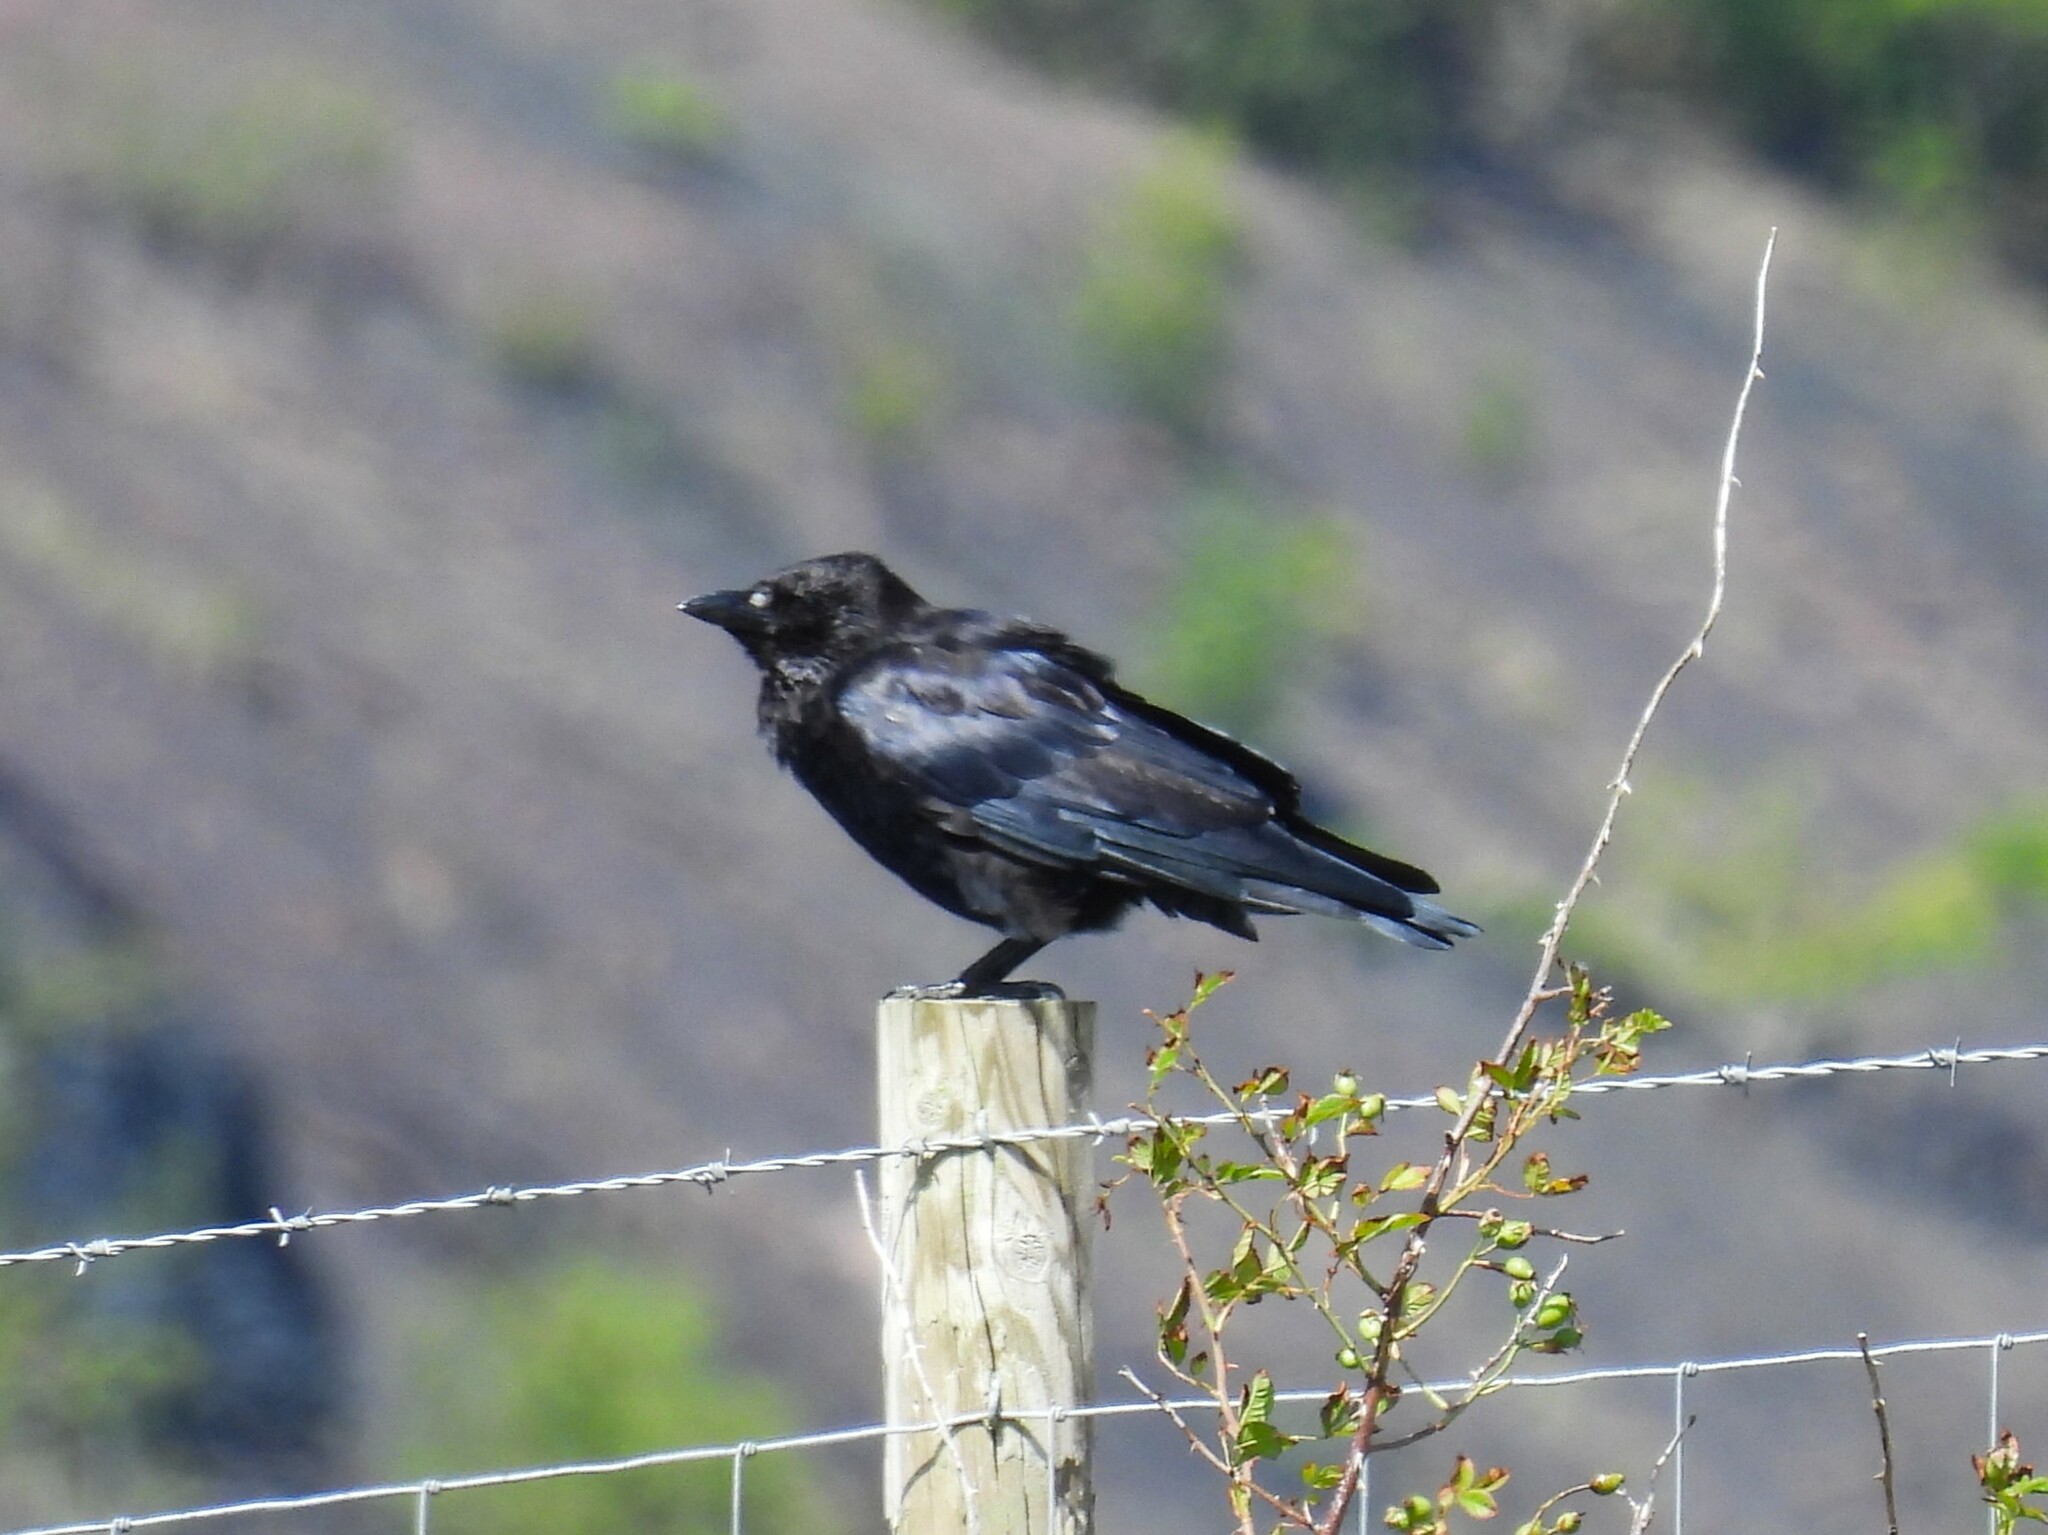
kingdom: Animalia
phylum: Chordata
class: Aves
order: Passeriformes
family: Corvidae
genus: Corvus
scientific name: Corvus corone
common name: Carrion crow
